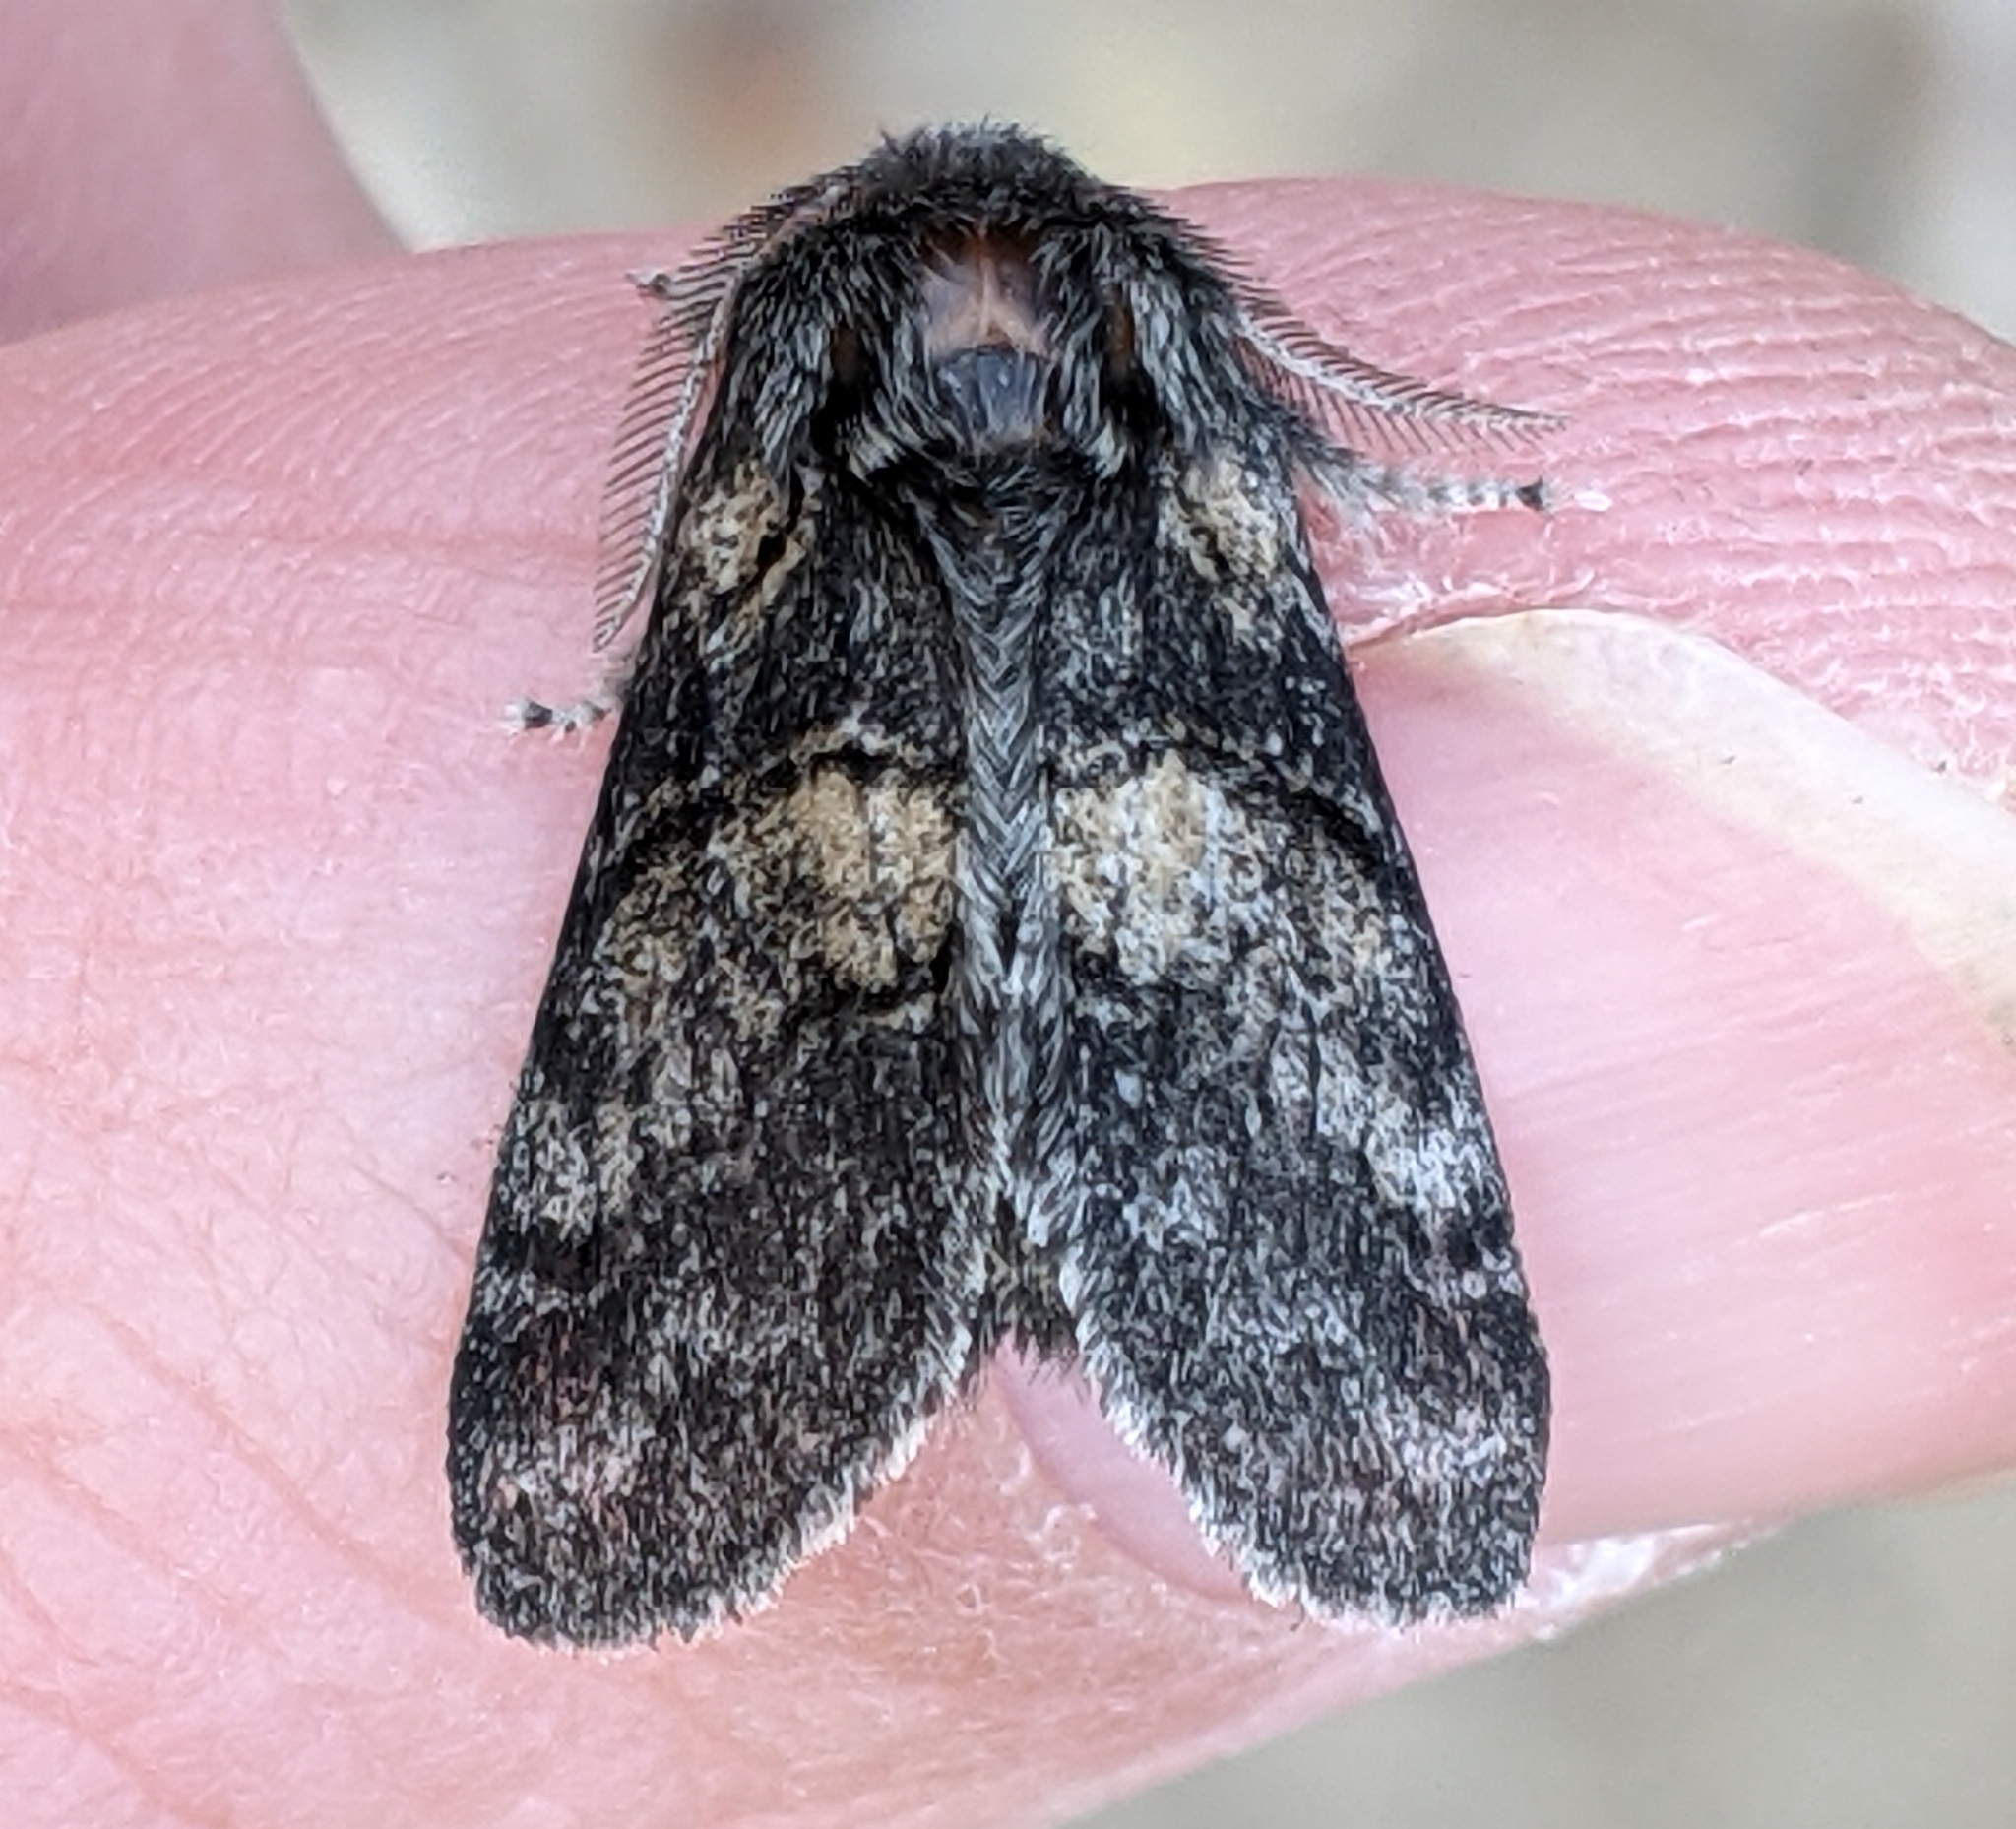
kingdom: Animalia
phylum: Arthropoda
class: Insecta
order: Lepidoptera
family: Notodontidae
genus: Gluphisia
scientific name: Gluphisia septentrionis
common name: Common gluphisia
